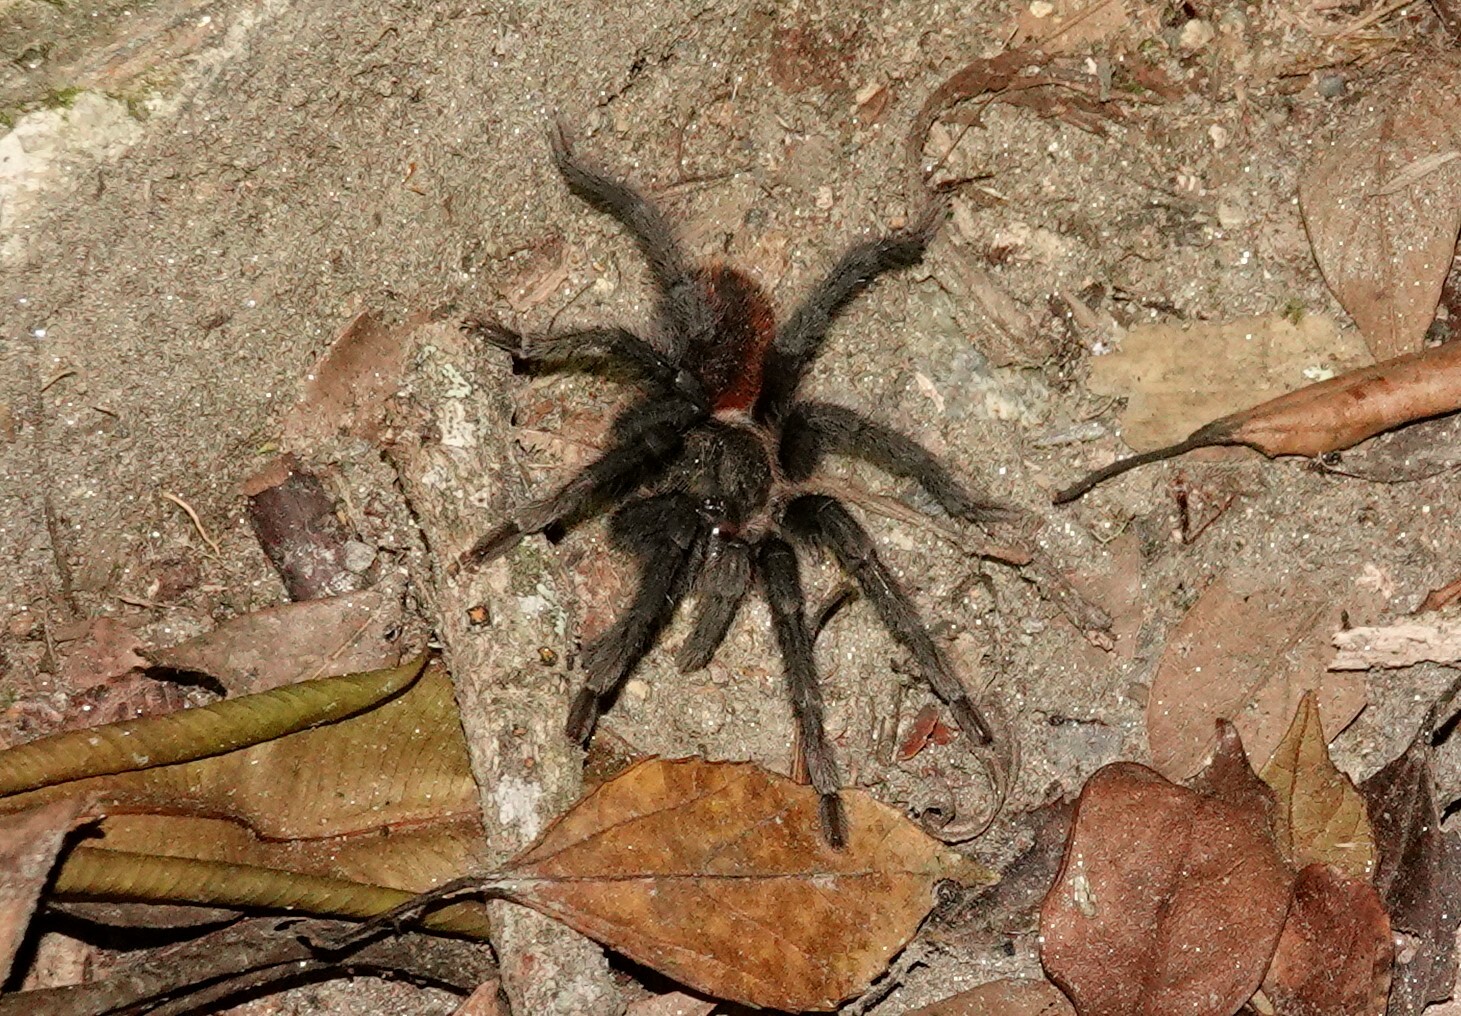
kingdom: Animalia
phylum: Arthropoda
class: Arachnida
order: Araneae
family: Theraphosidae
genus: Kankuamo
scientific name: Kankuamo marquezi
